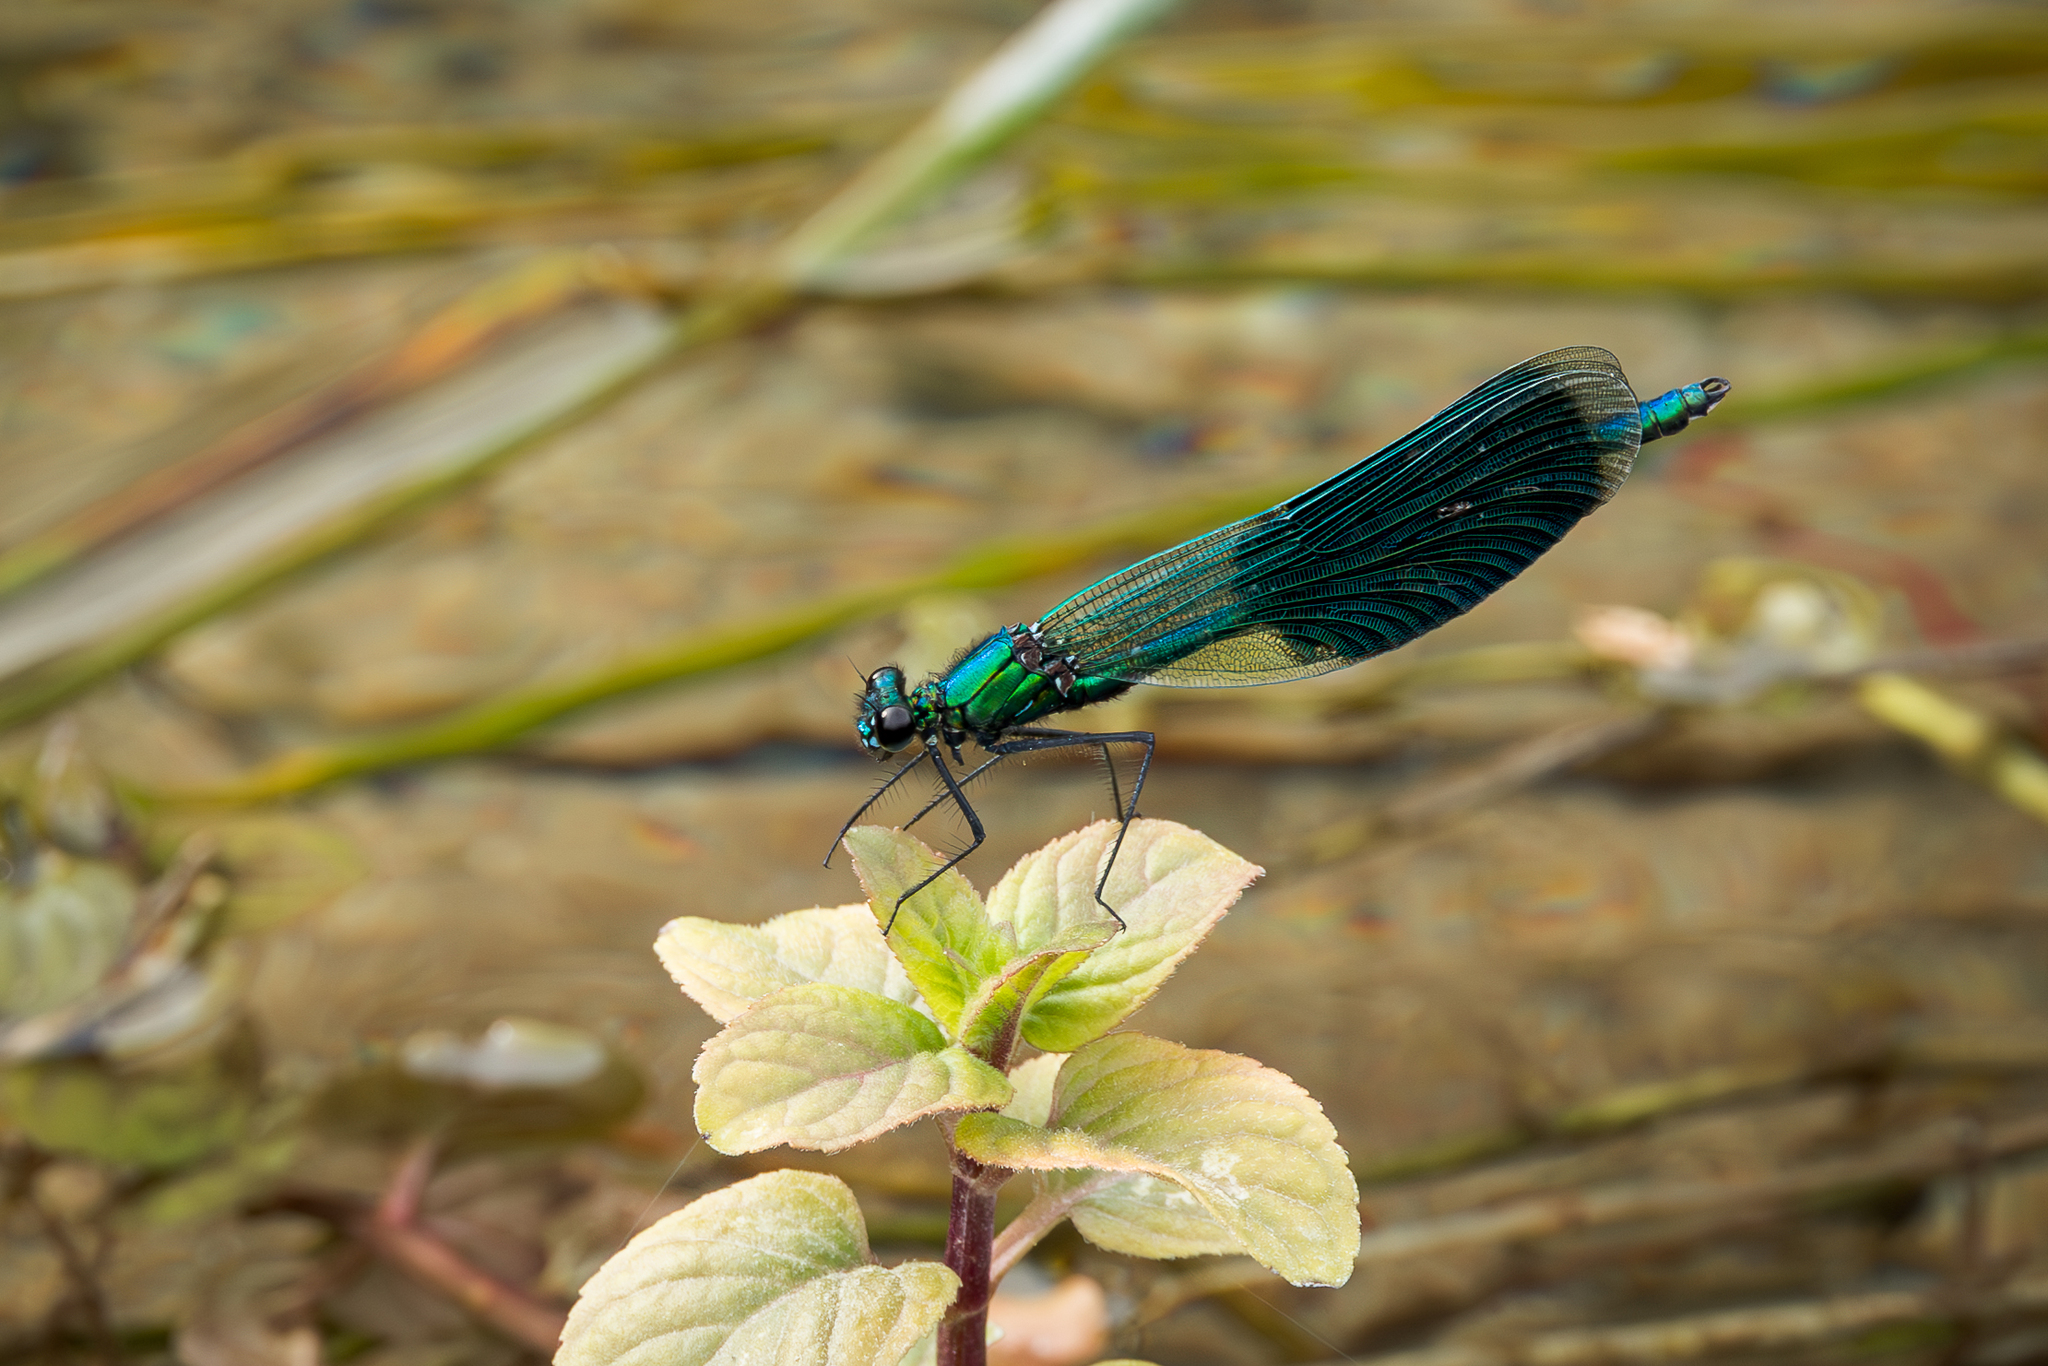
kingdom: Animalia
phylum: Arthropoda
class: Insecta
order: Odonata
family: Calopterygidae
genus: Calopteryx
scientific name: Calopteryx splendens
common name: Banded demoiselle
